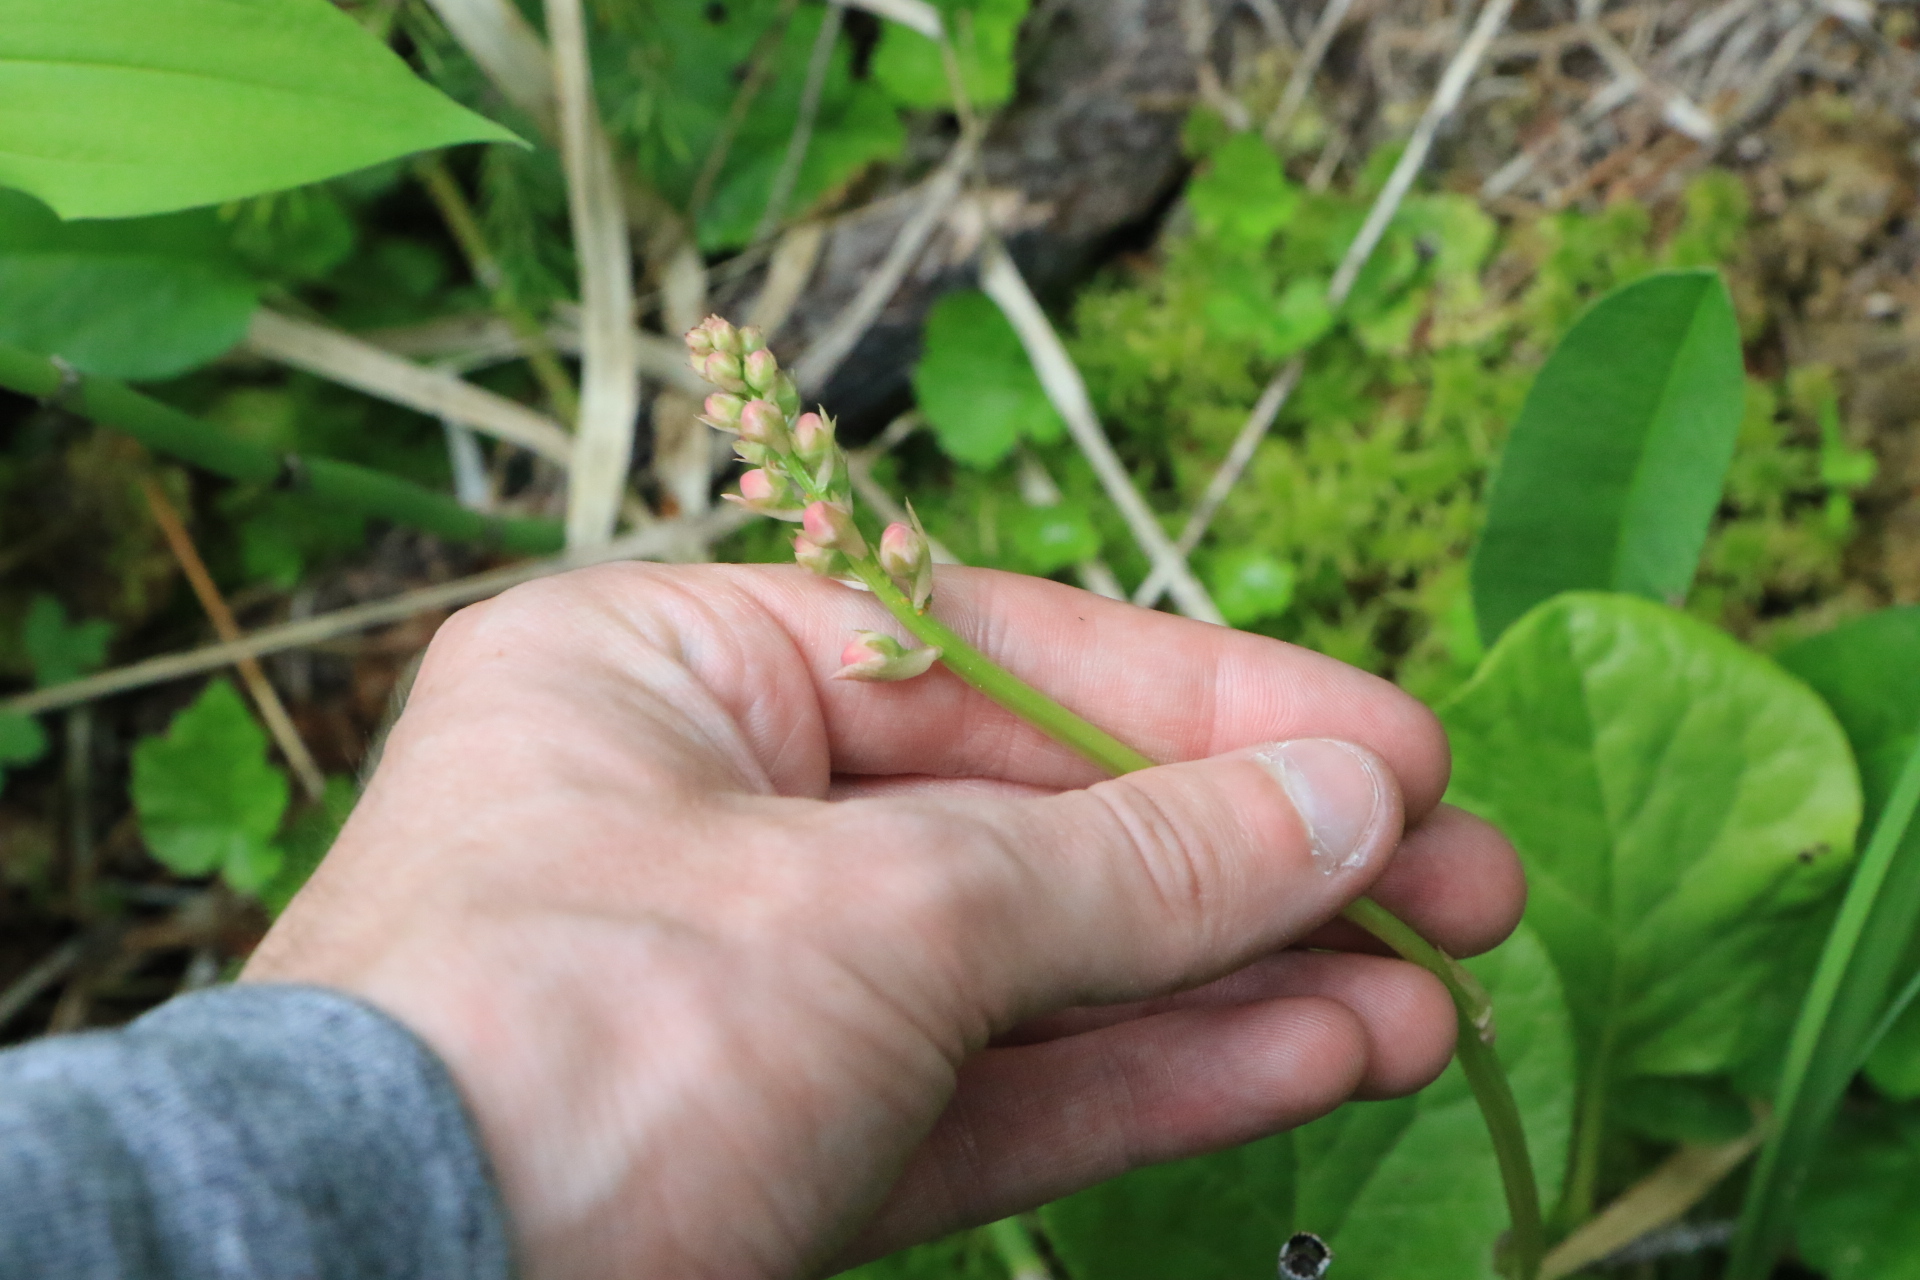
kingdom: Plantae
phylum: Tracheophyta
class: Magnoliopsida
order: Ericales
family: Ericaceae
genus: Pyrola
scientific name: Pyrola asarifolia
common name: Bog wintergreen
